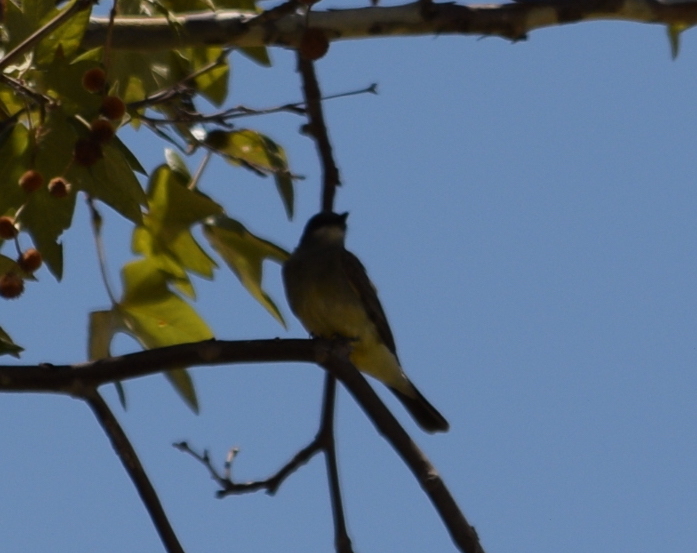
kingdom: Animalia
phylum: Chordata
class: Aves
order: Passeriformes
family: Tyrannidae
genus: Tyrannus
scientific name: Tyrannus vociferans
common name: Cassin's kingbird
